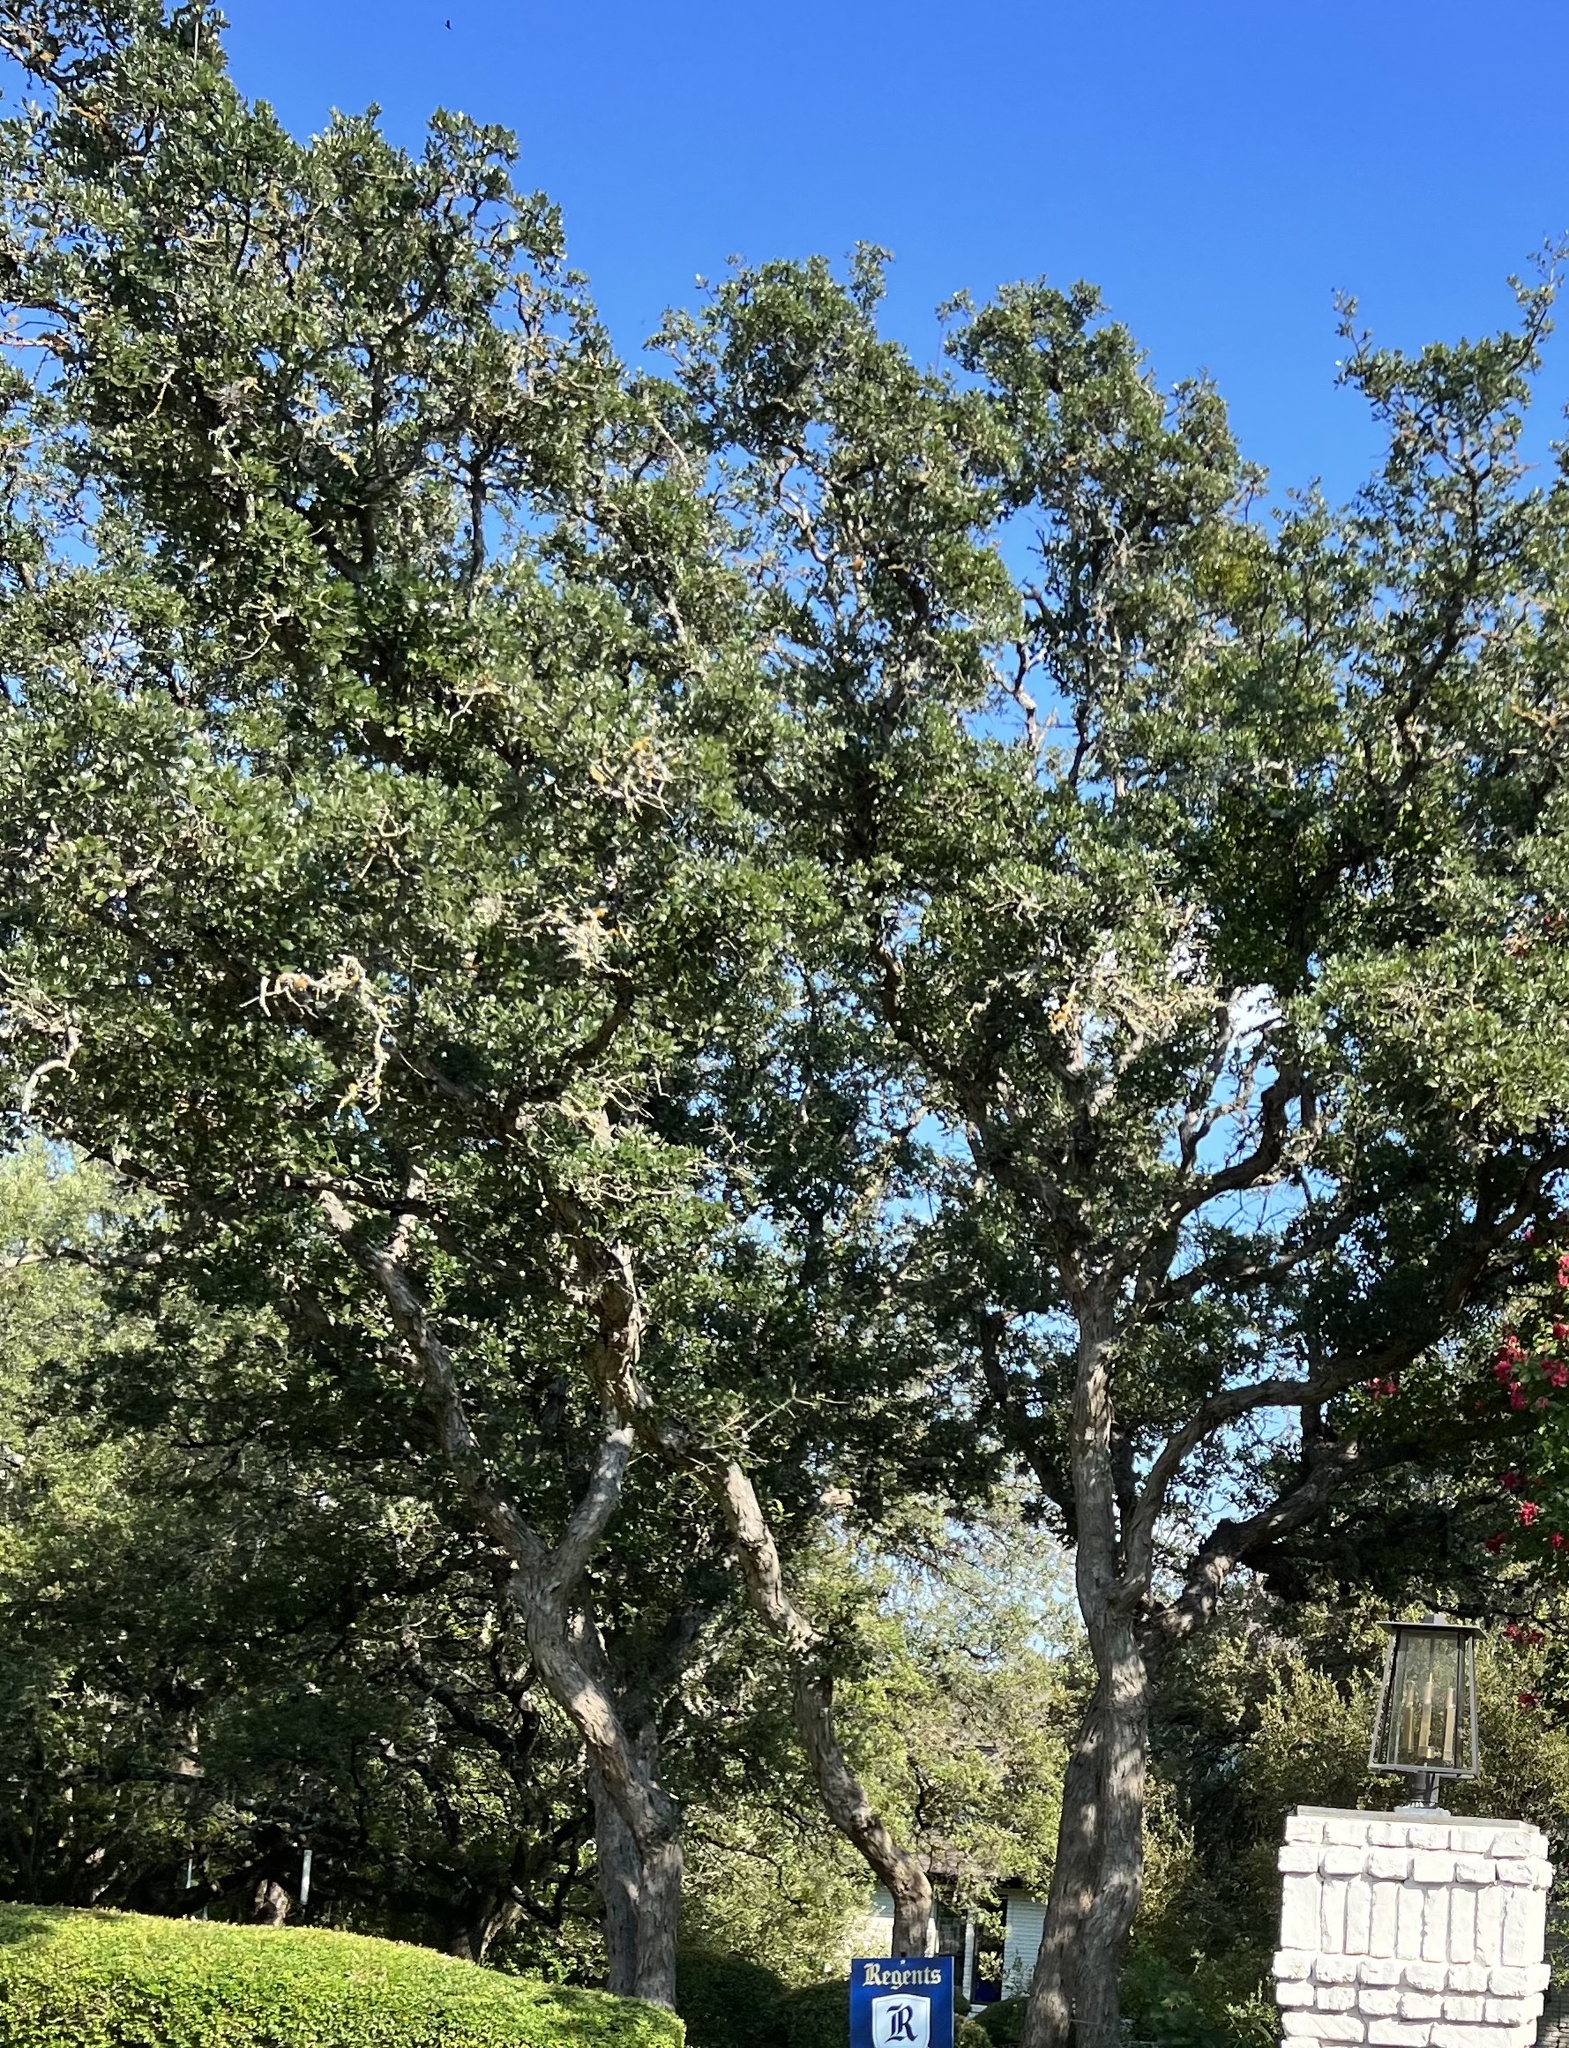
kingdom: Plantae
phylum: Tracheophyta
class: Magnoliopsida
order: Fagales
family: Fagaceae
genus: Quercus
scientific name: Quercus sinuata
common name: Durand oak
